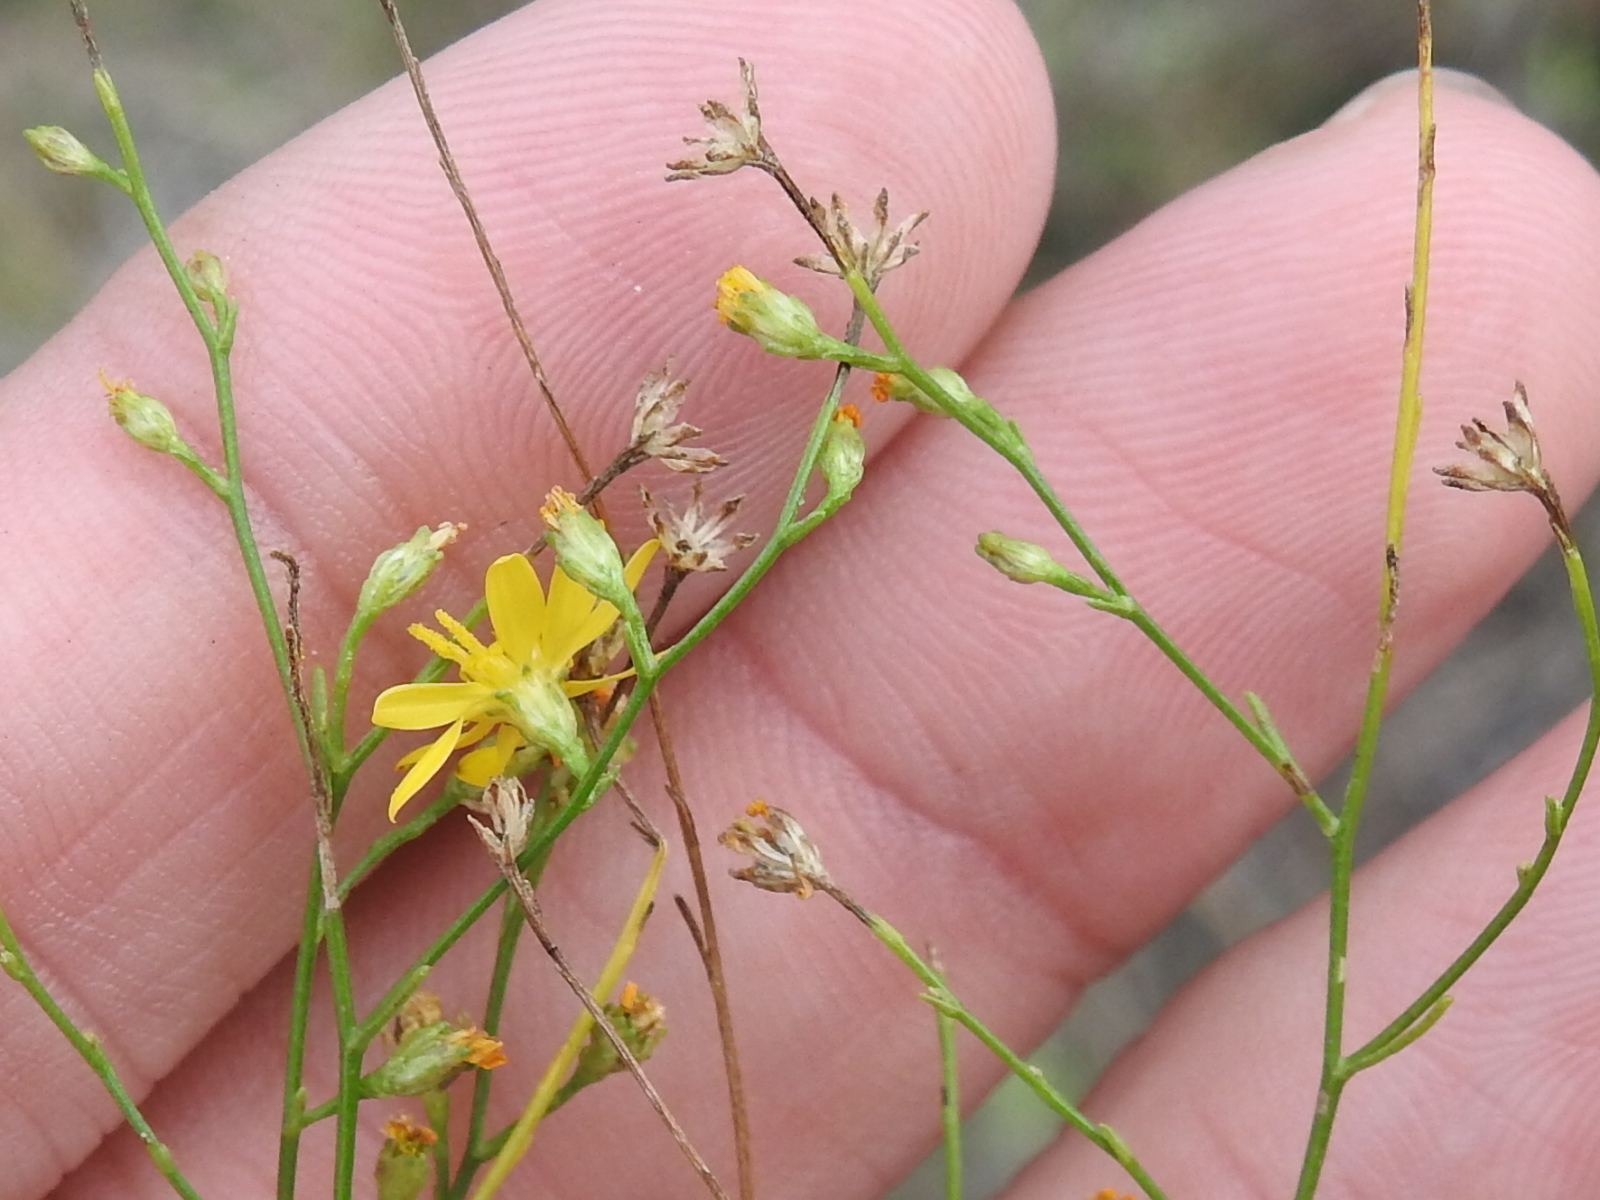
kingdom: Plantae
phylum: Tracheophyta
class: Magnoliopsida
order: Asterales
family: Asteraceae
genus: Gutierrezia
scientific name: Gutierrezia texana
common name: Texas snakeweed
